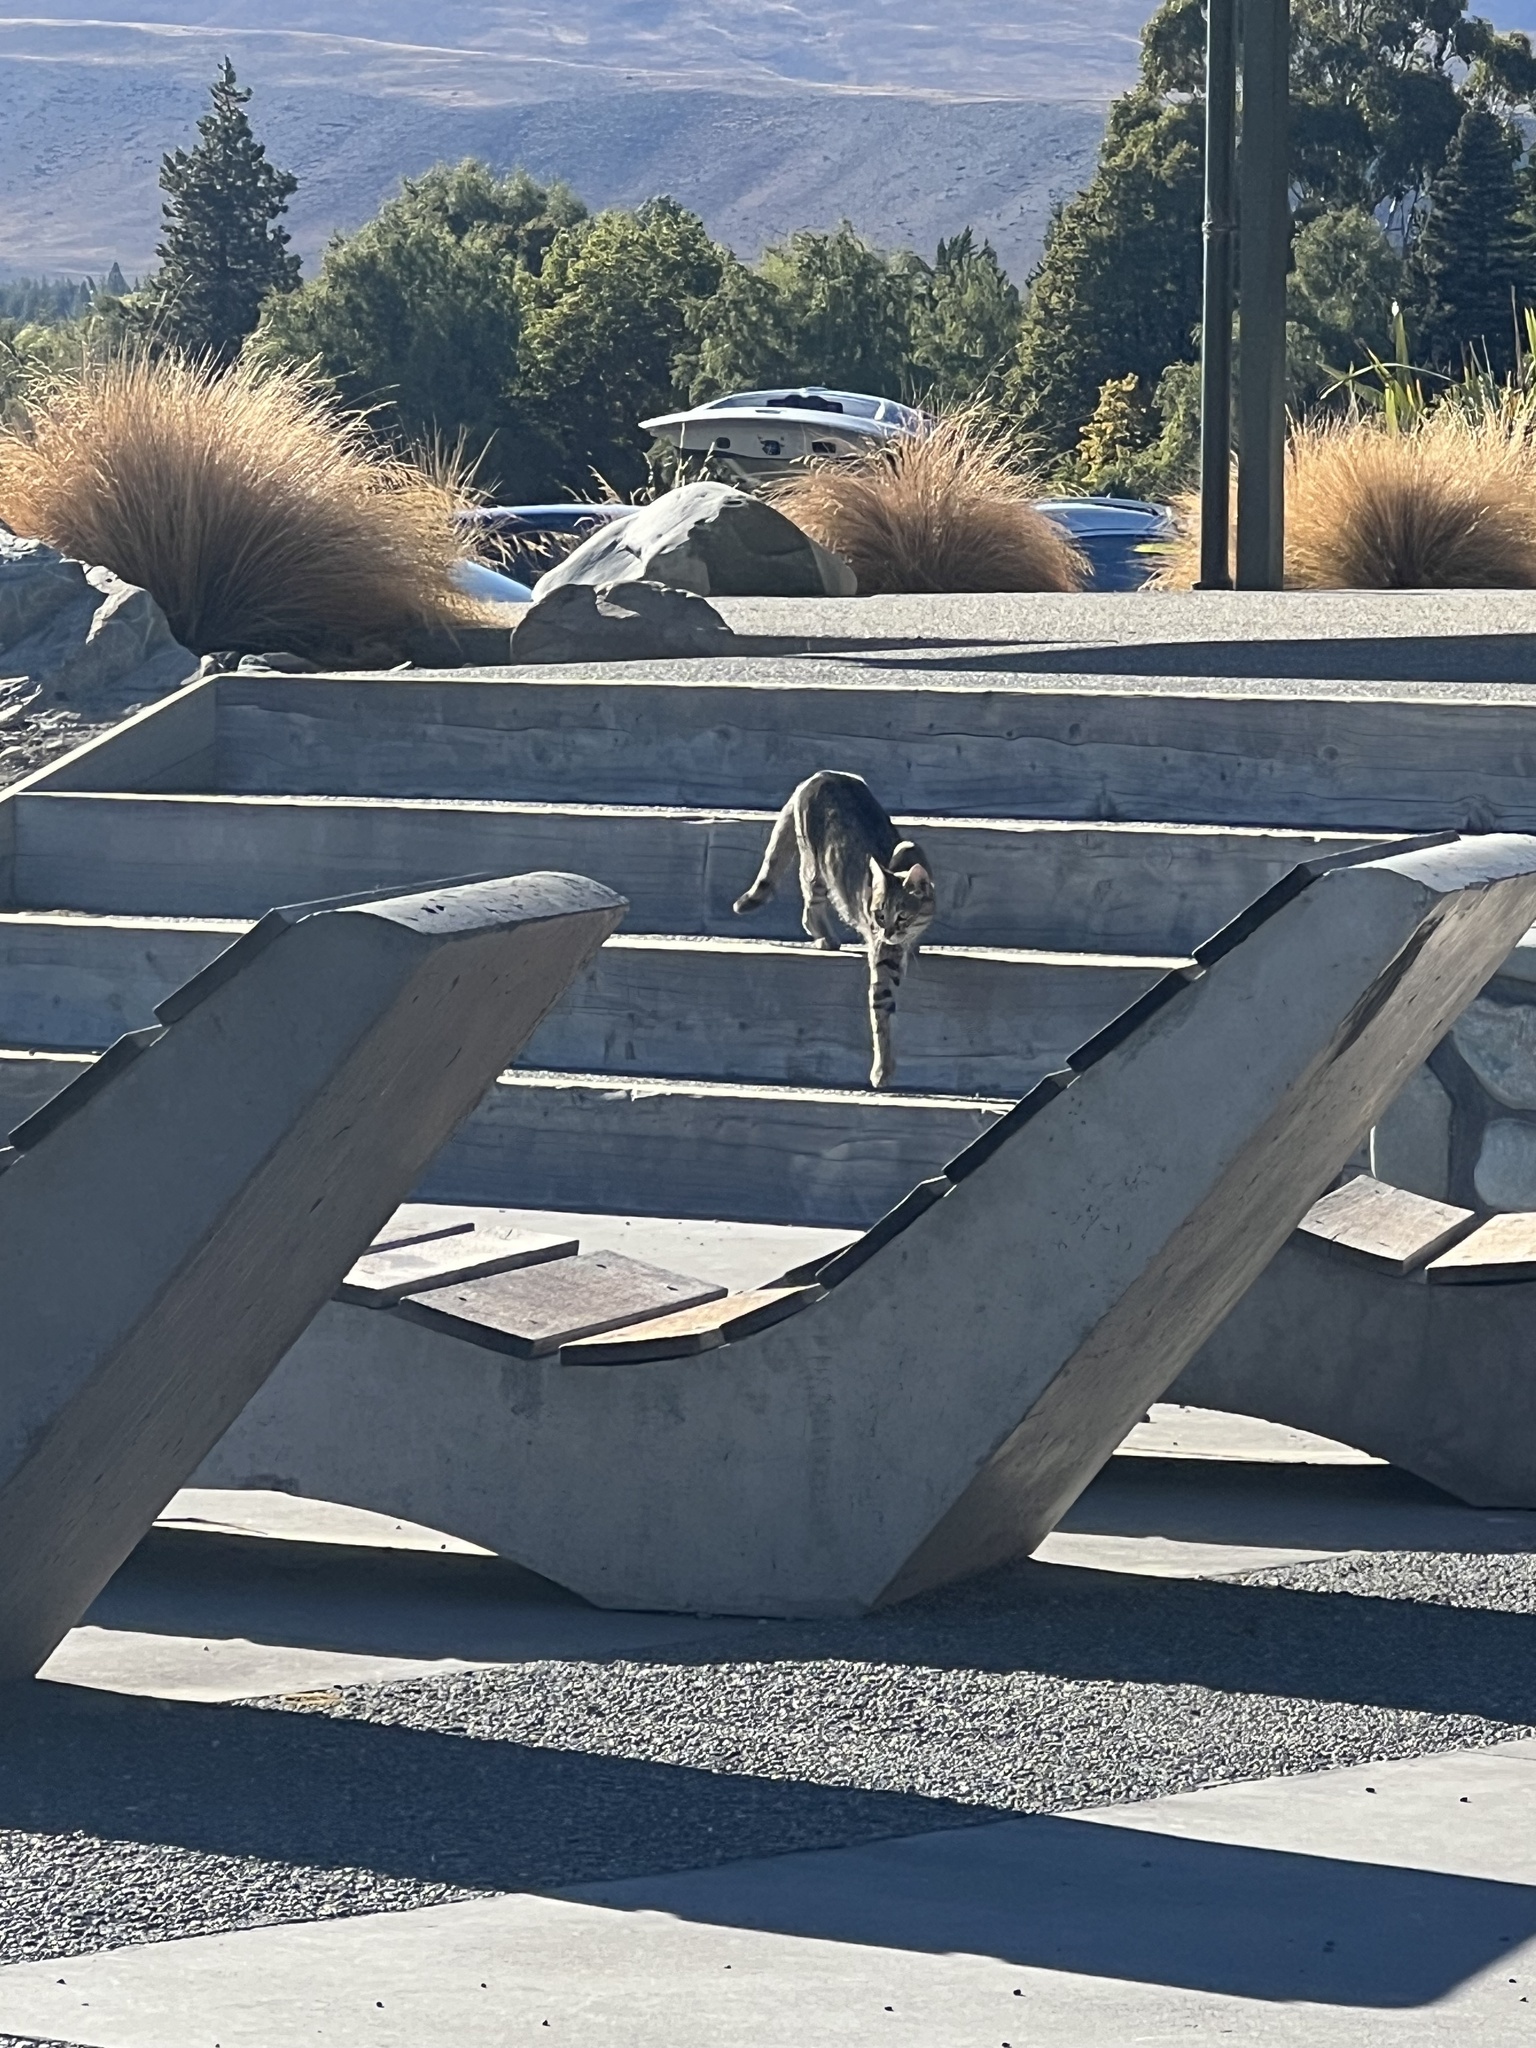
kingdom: Animalia
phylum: Chordata
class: Mammalia
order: Carnivora
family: Felidae
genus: Felis
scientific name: Felis catus
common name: Domestic cat
